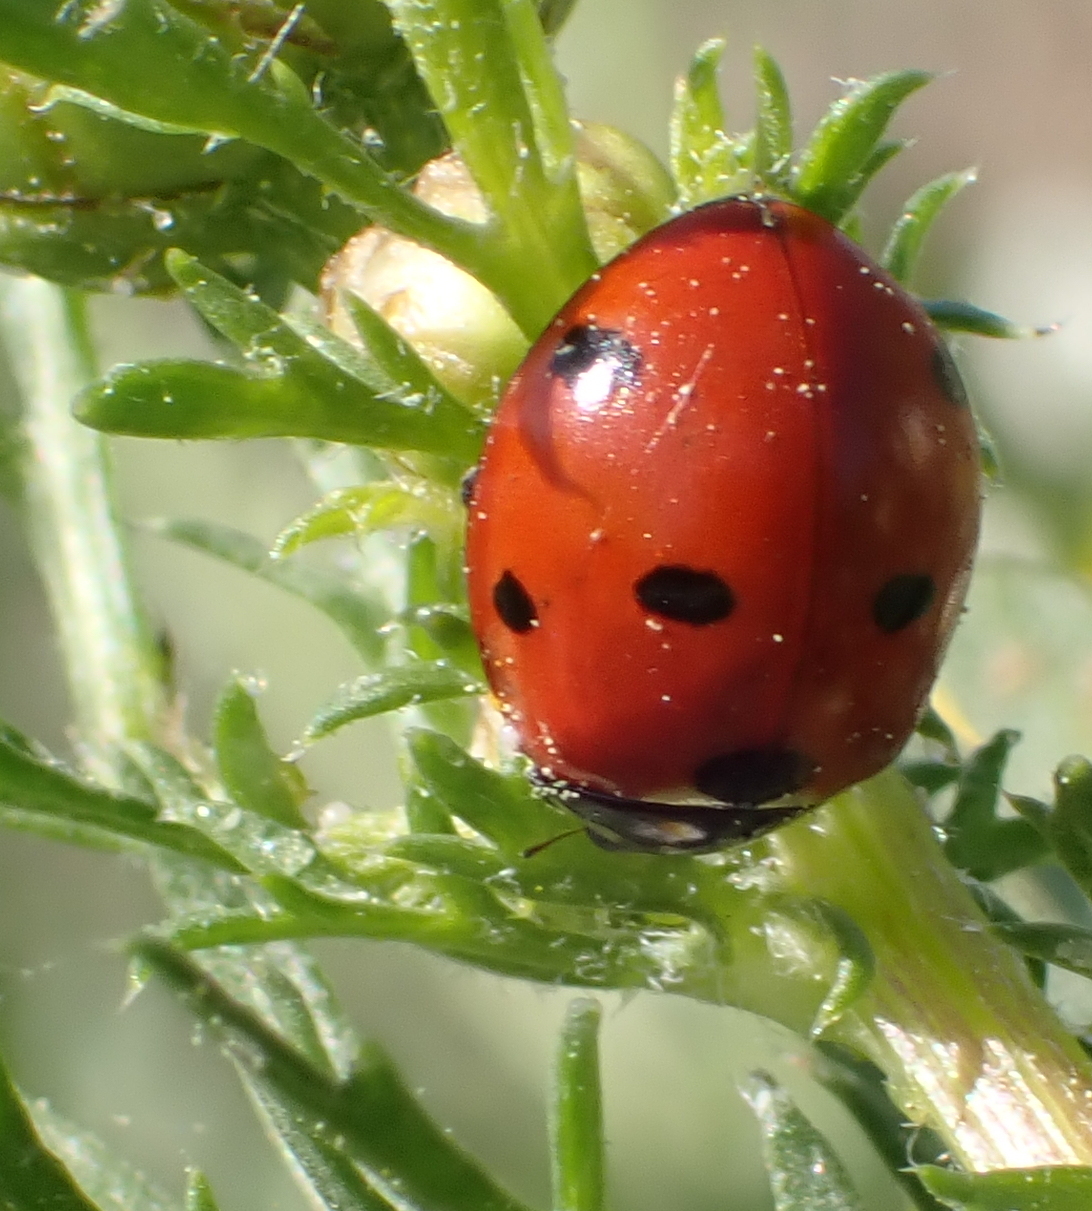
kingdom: Animalia
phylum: Arthropoda
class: Insecta
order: Coleoptera
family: Coccinellidae
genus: Coccinella
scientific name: Coccinella septempunctata
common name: Sevenspotted lady beetle
